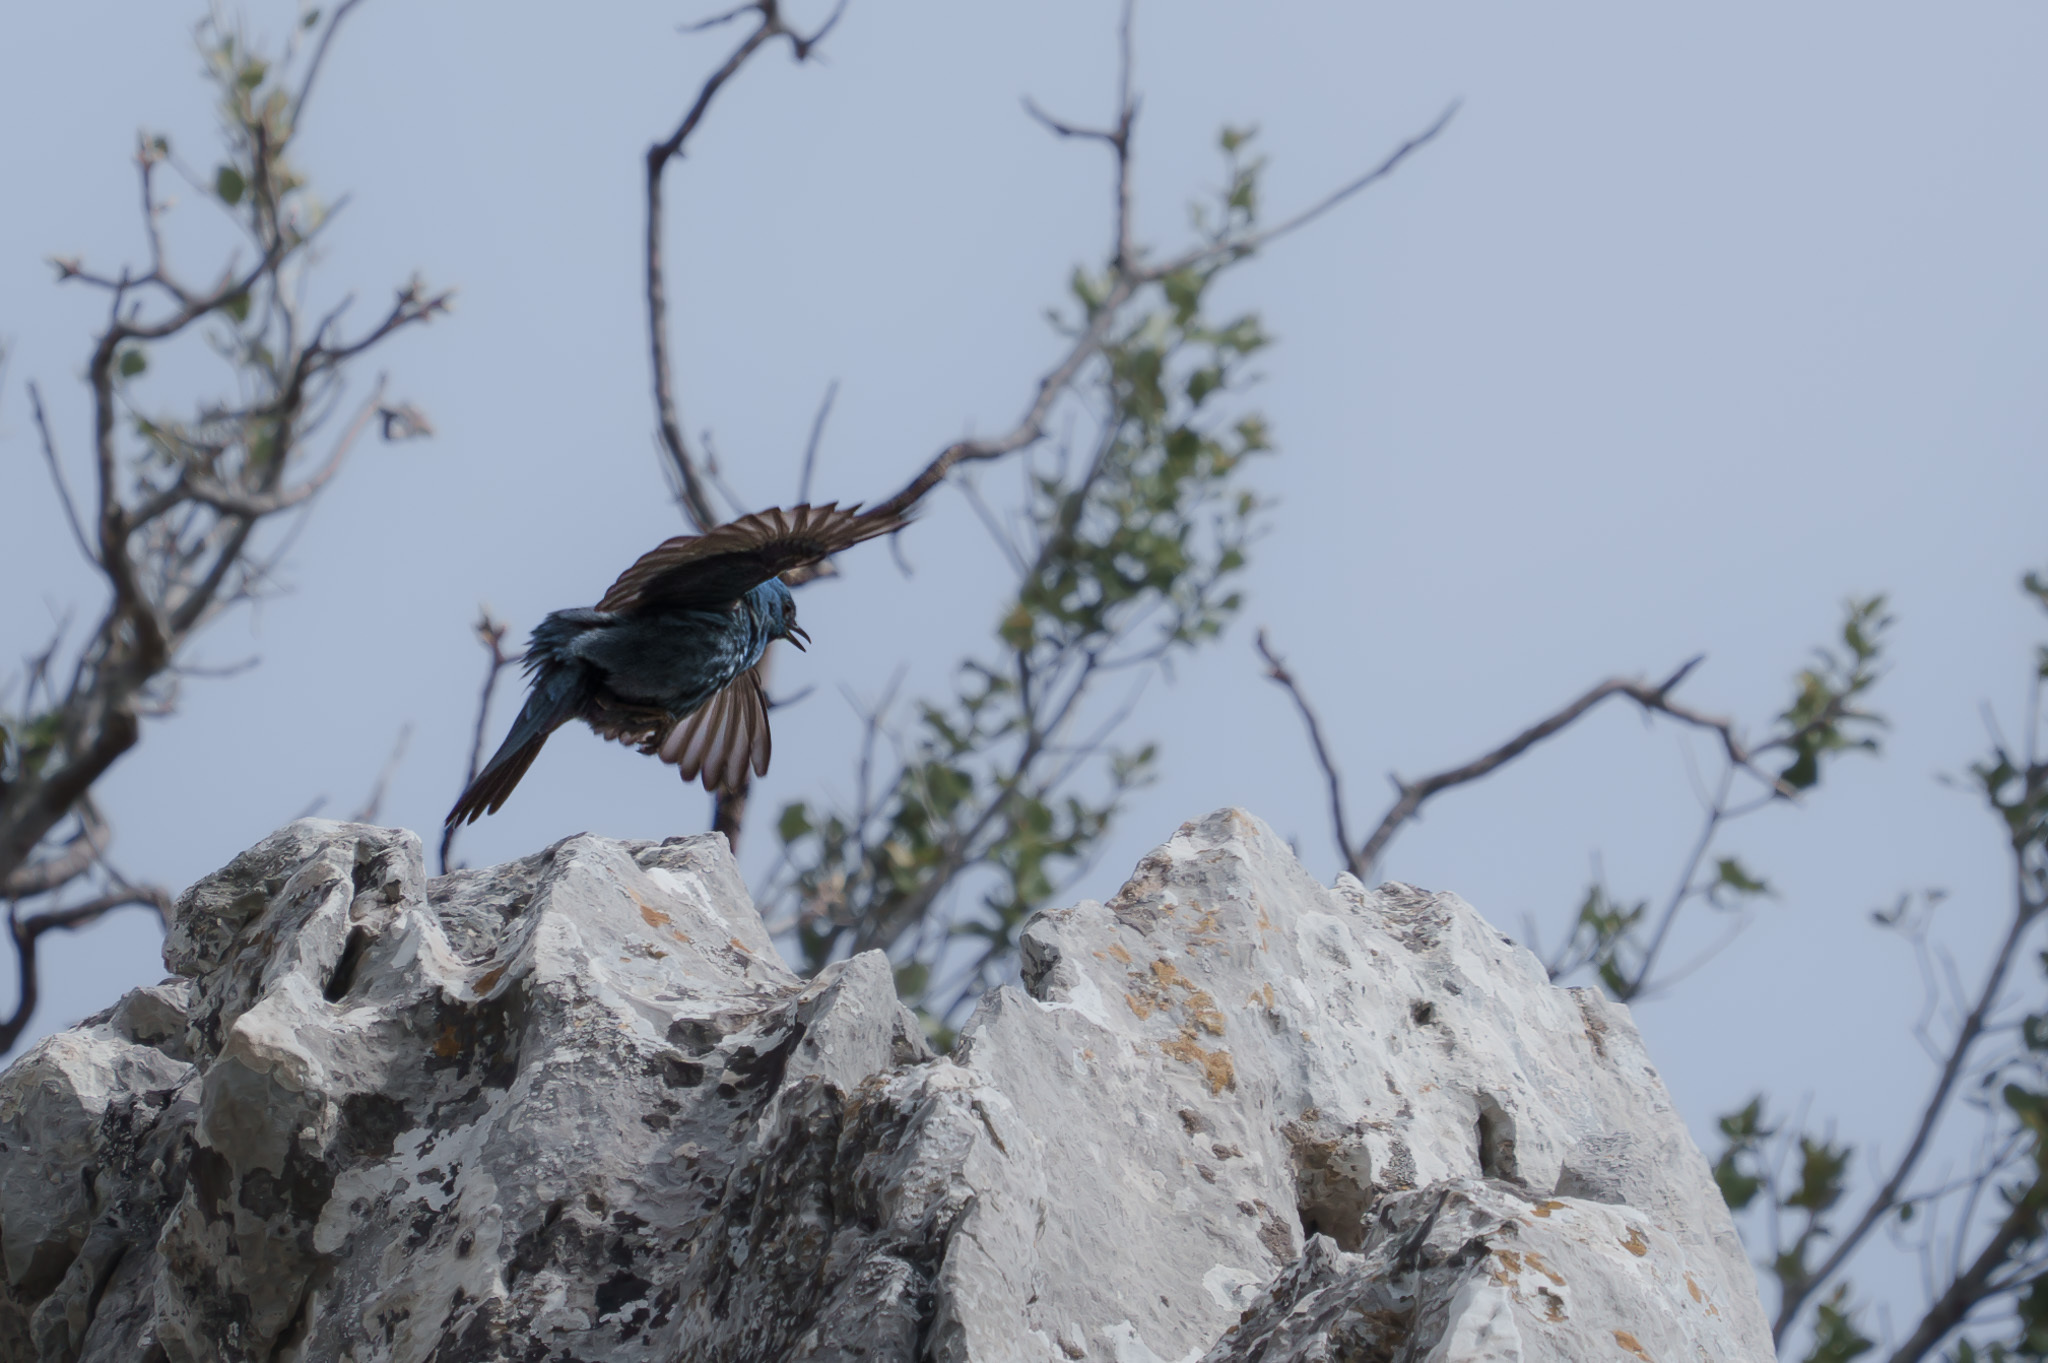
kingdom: Animalia
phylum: Chordata
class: Aves
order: Passeriformes
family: Muscicapidae
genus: Monticola
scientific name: Monticola solitarius
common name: Blue rock thrush
